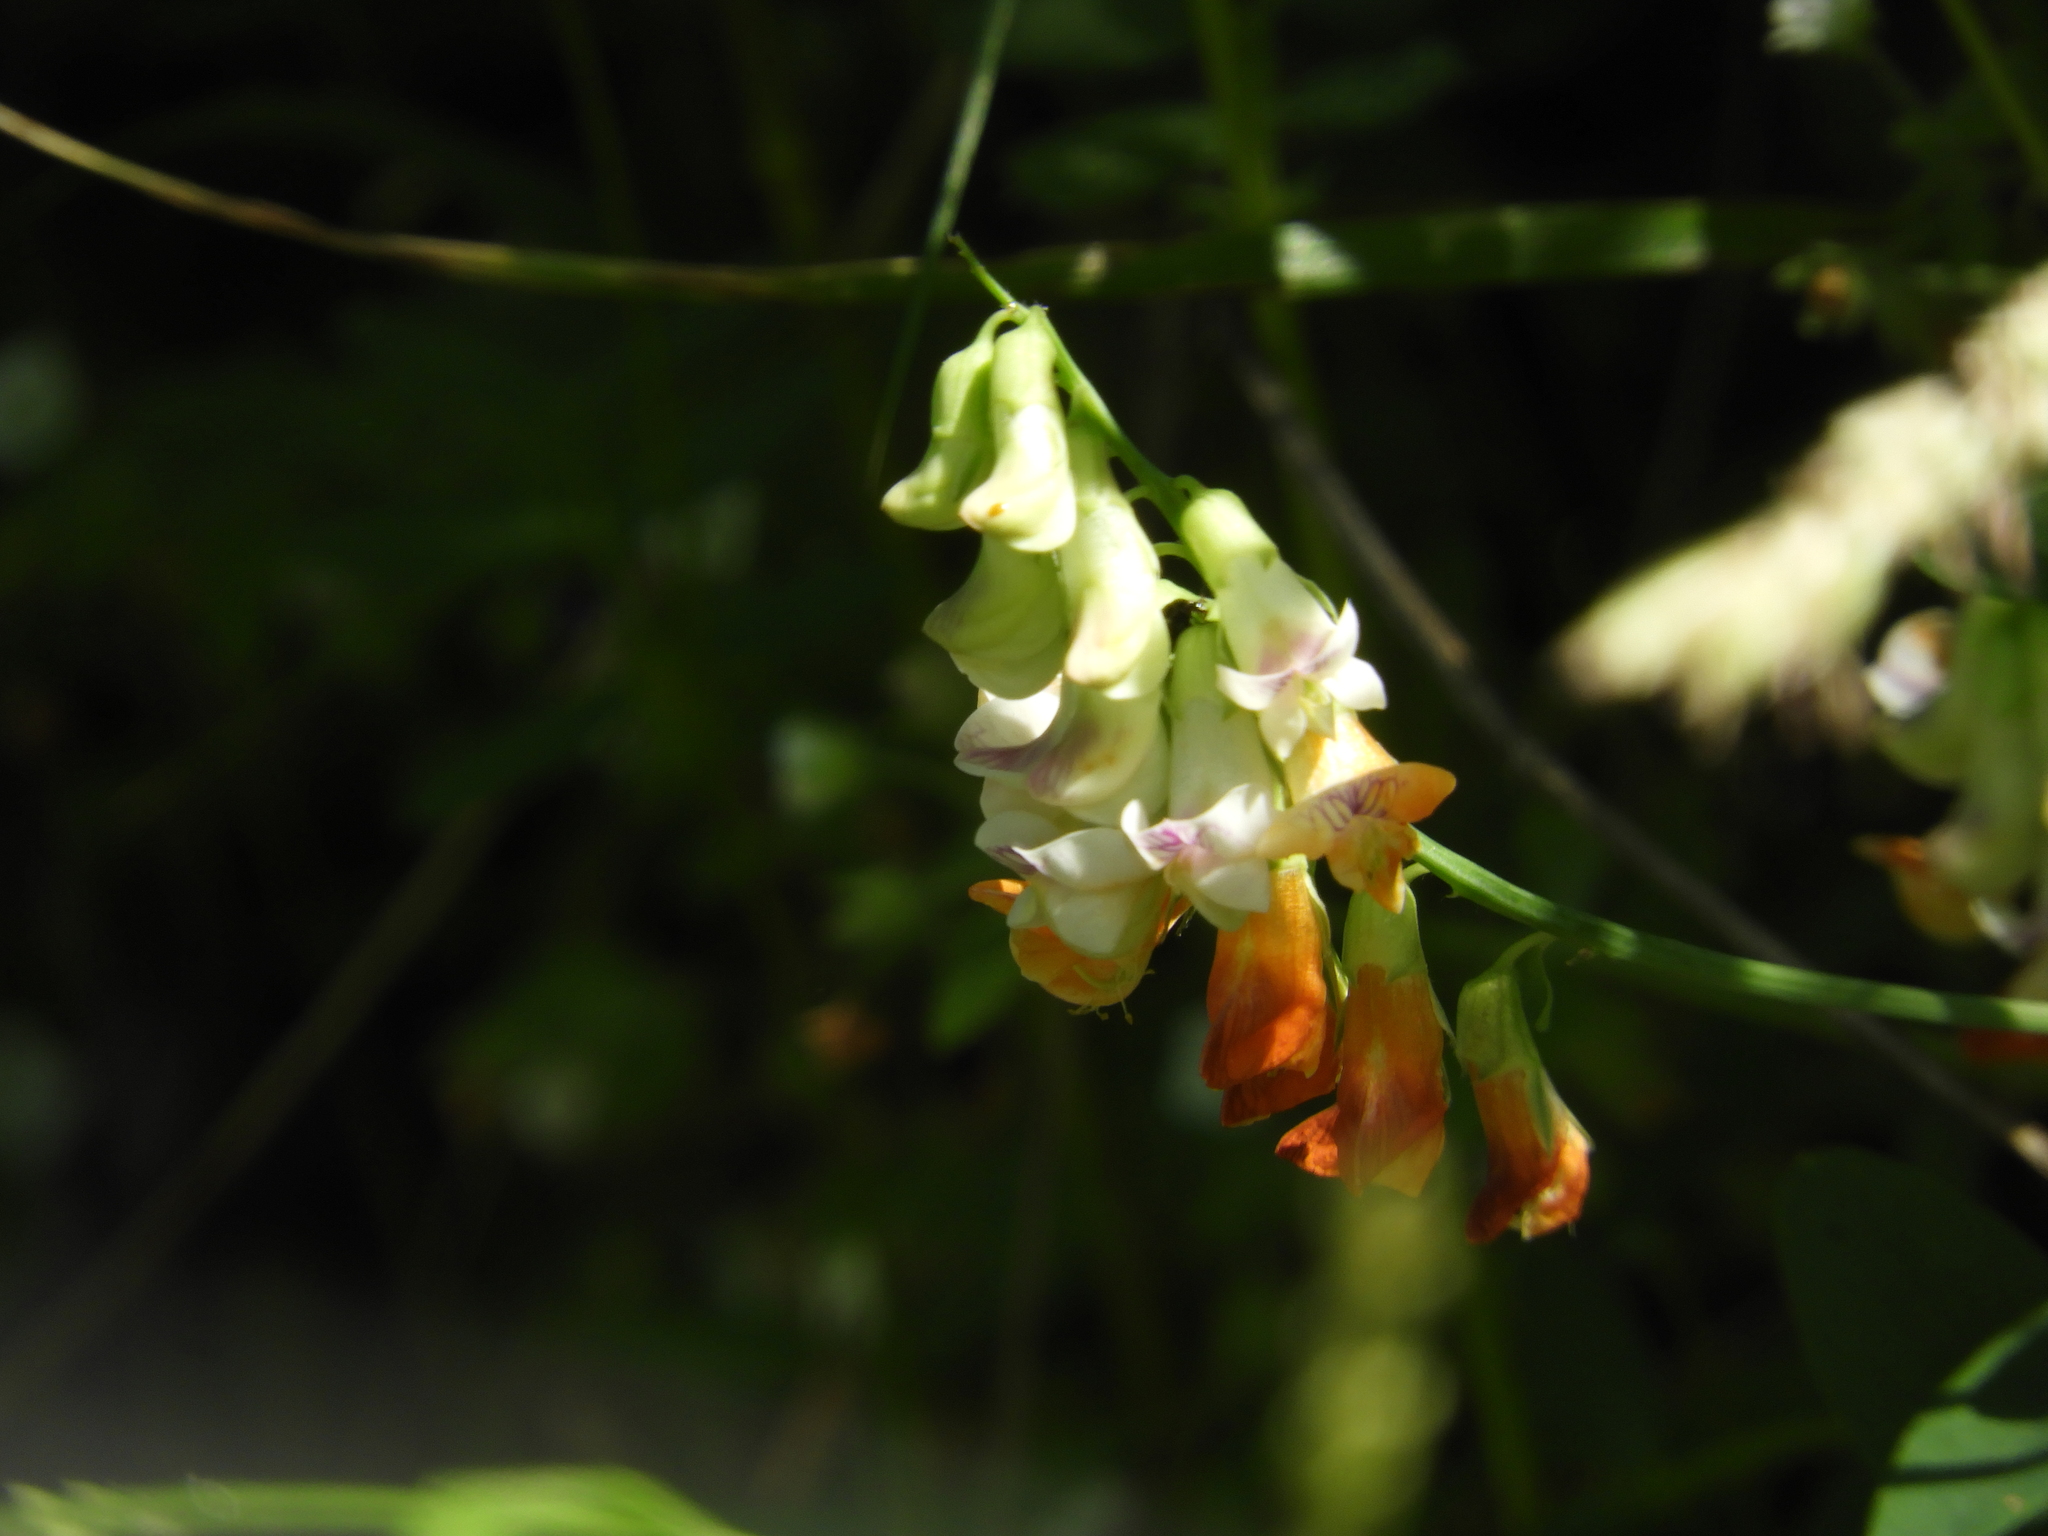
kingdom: Plantae
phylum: Tracheophyta
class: Magnoliopsida
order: Fabales
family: Fabaceae
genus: Lathyrus
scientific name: Lathyrus sulphureus
